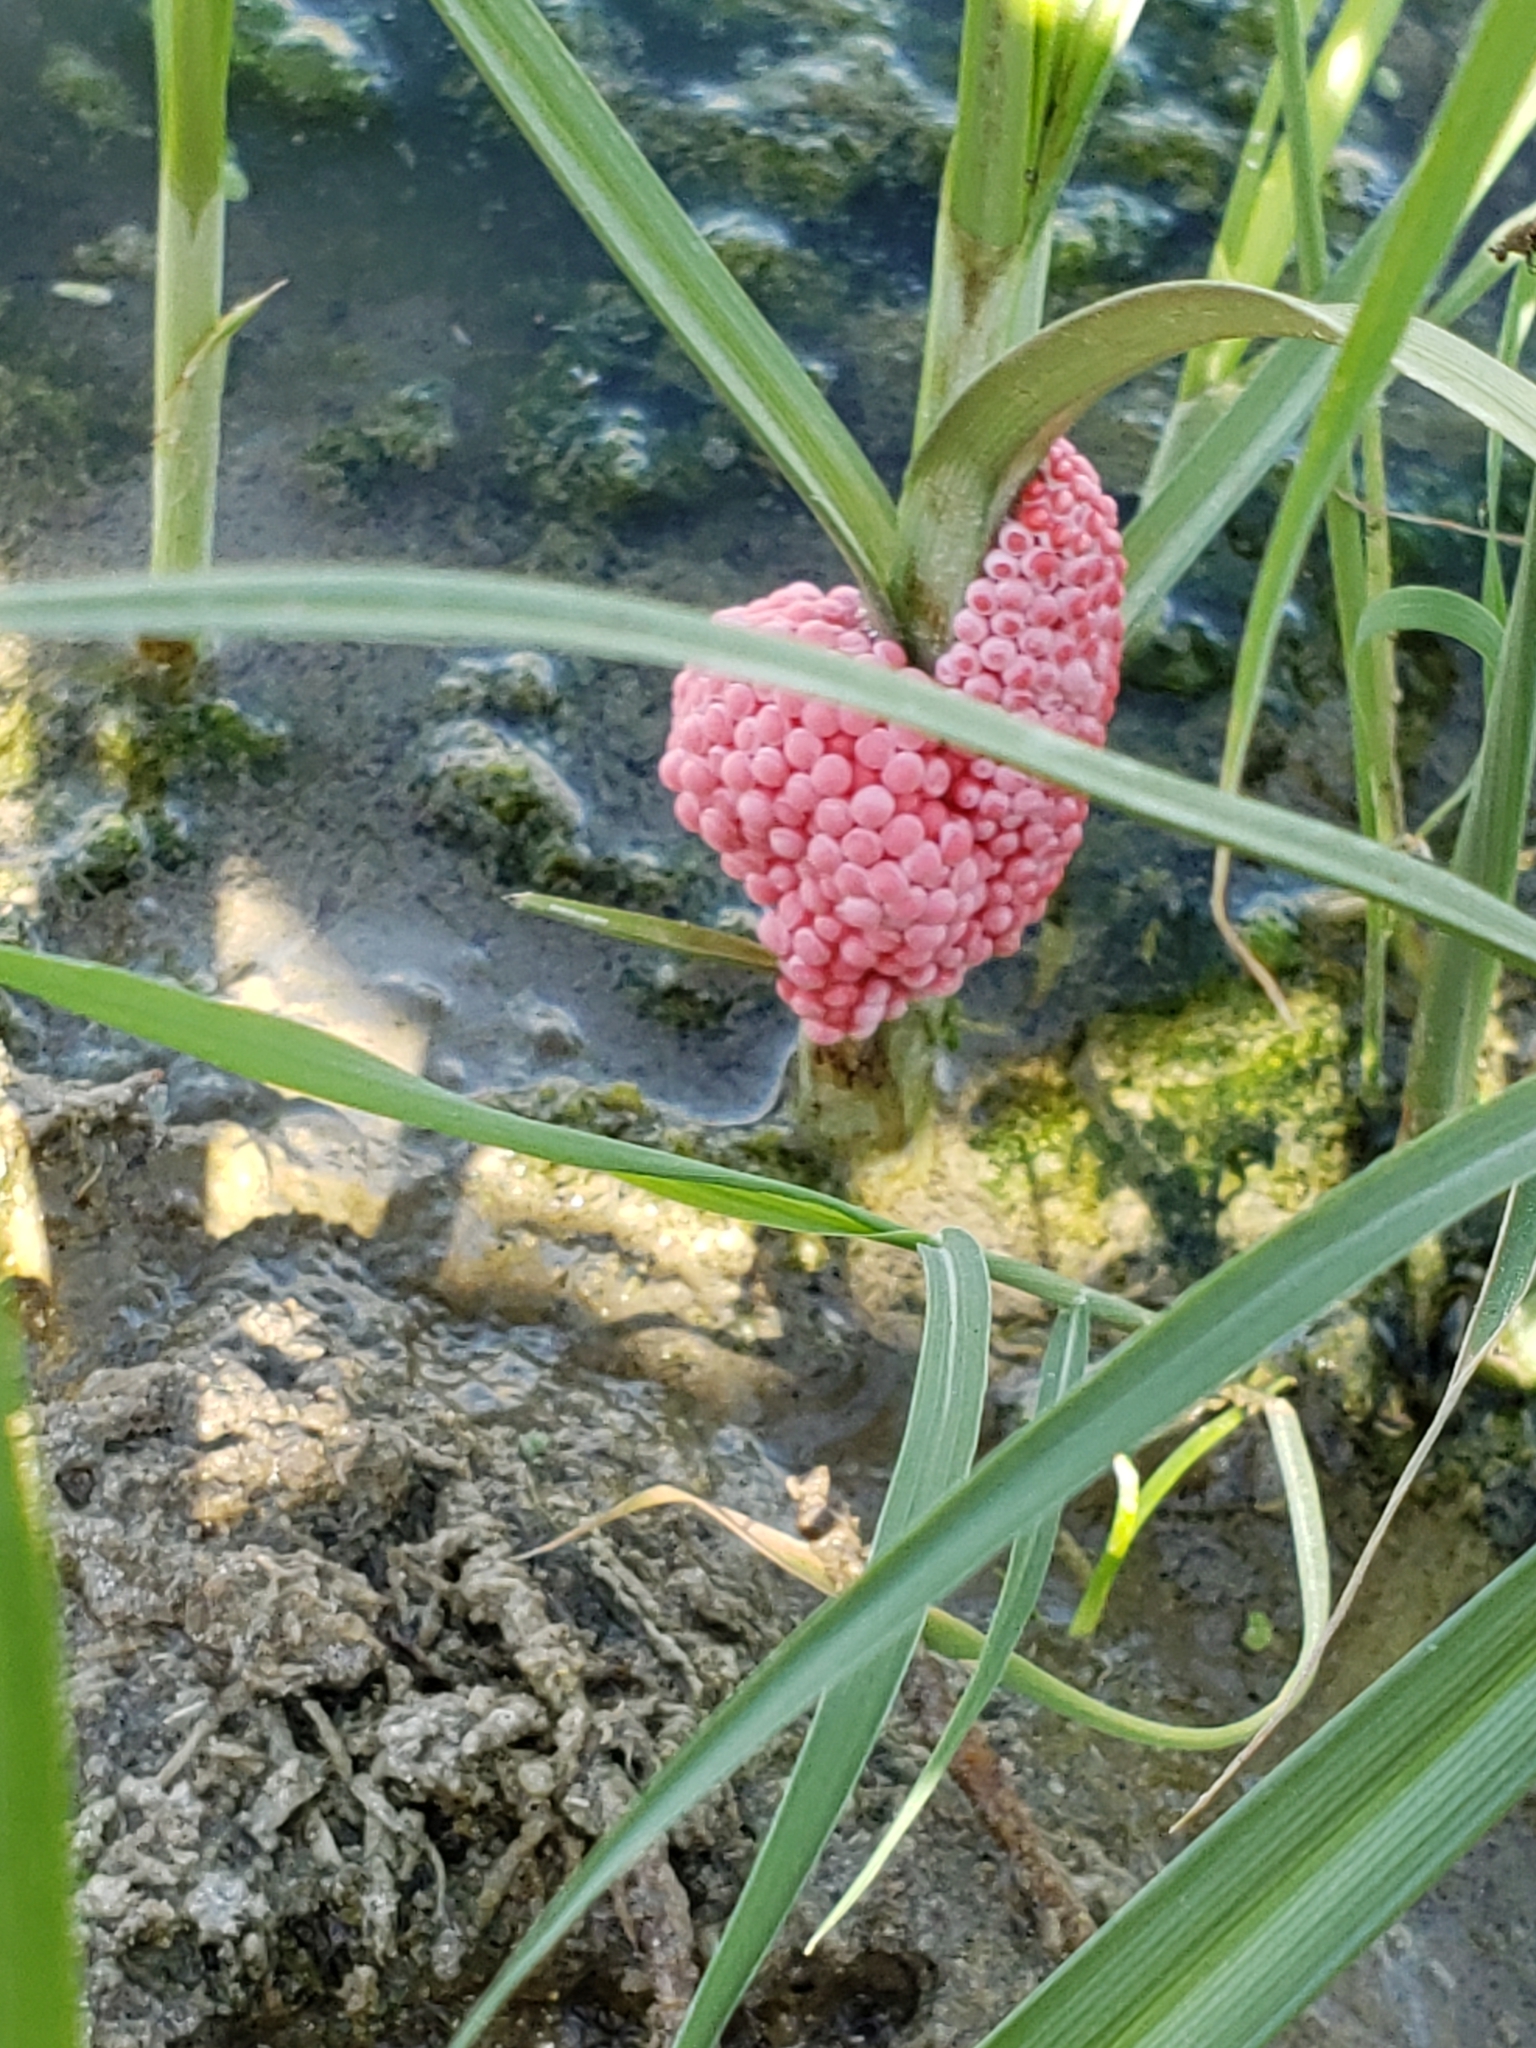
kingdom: Animalia
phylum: Mollusca
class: Gastropoda
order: Architaenioglossa
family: Ampullariidae
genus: Pomacea
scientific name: Pomacea canaliculata
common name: Channeled applesnail
